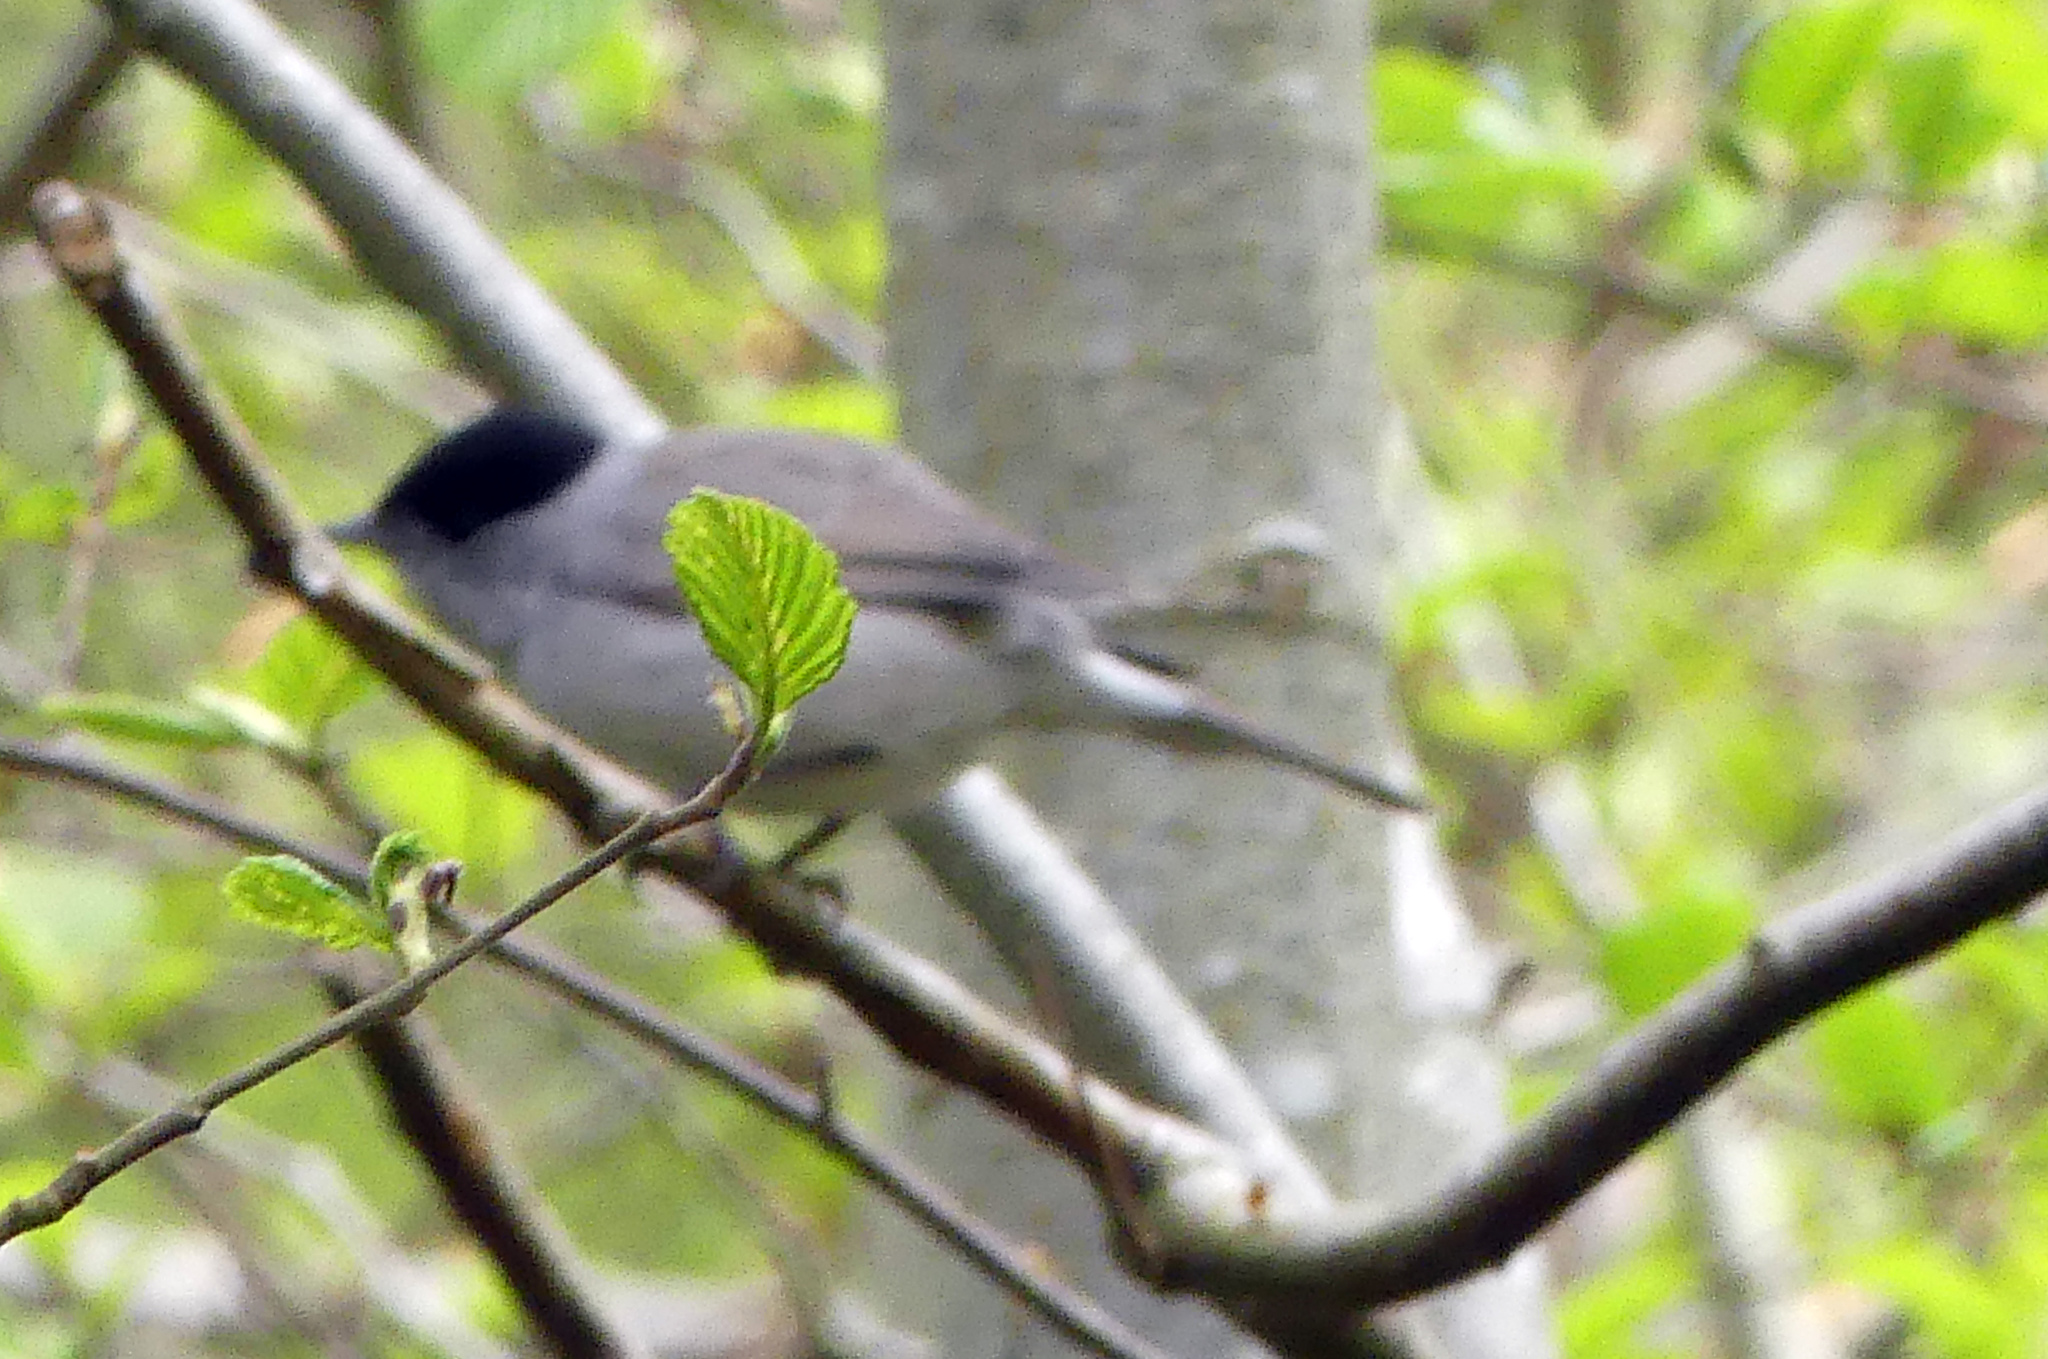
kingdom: Animalia
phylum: Chordata
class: Aves
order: Passeriformes
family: Sylviidae
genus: Sylvia
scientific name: Sylvia atricapilla
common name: Eurasian blackcap
